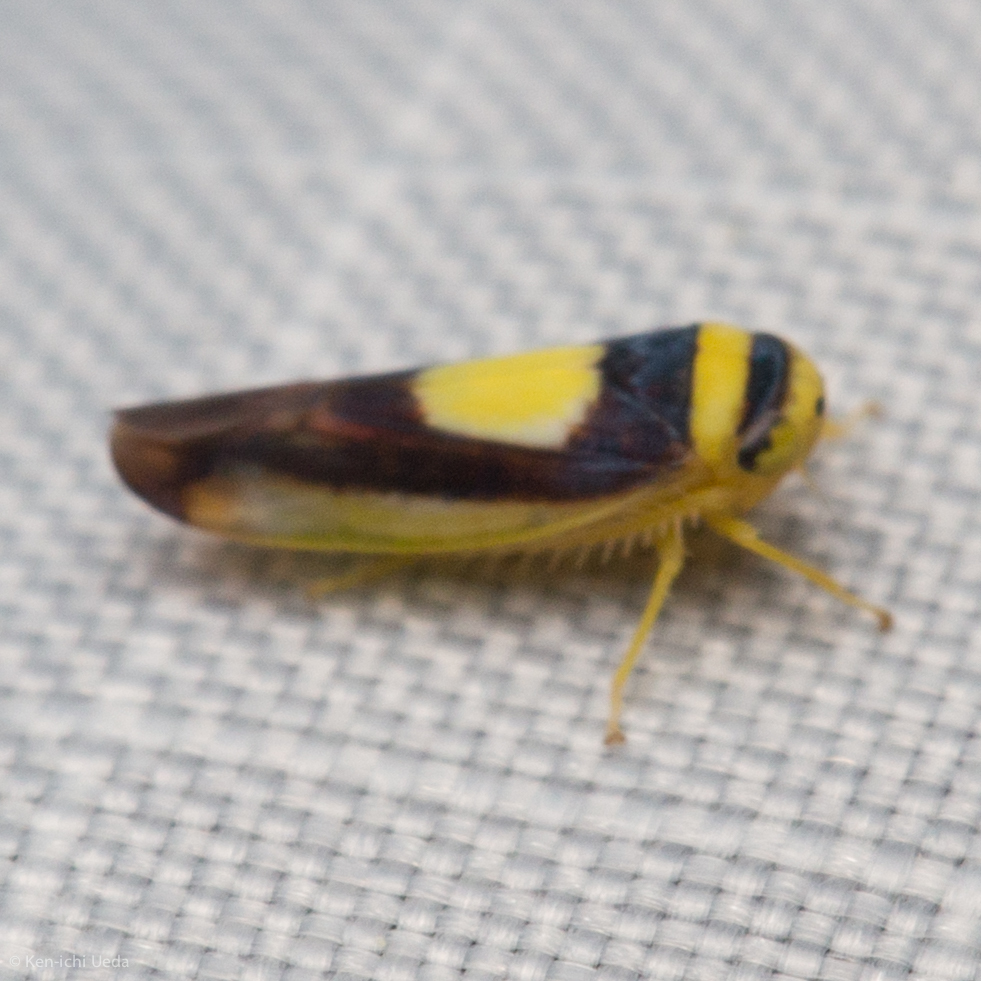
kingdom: Animalia
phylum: Arthropoda
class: Insecta
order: Hemiptera
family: Cicadellidae
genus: Colladonus
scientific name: Colladonus clitellarius
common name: The saddleback leafhopper
